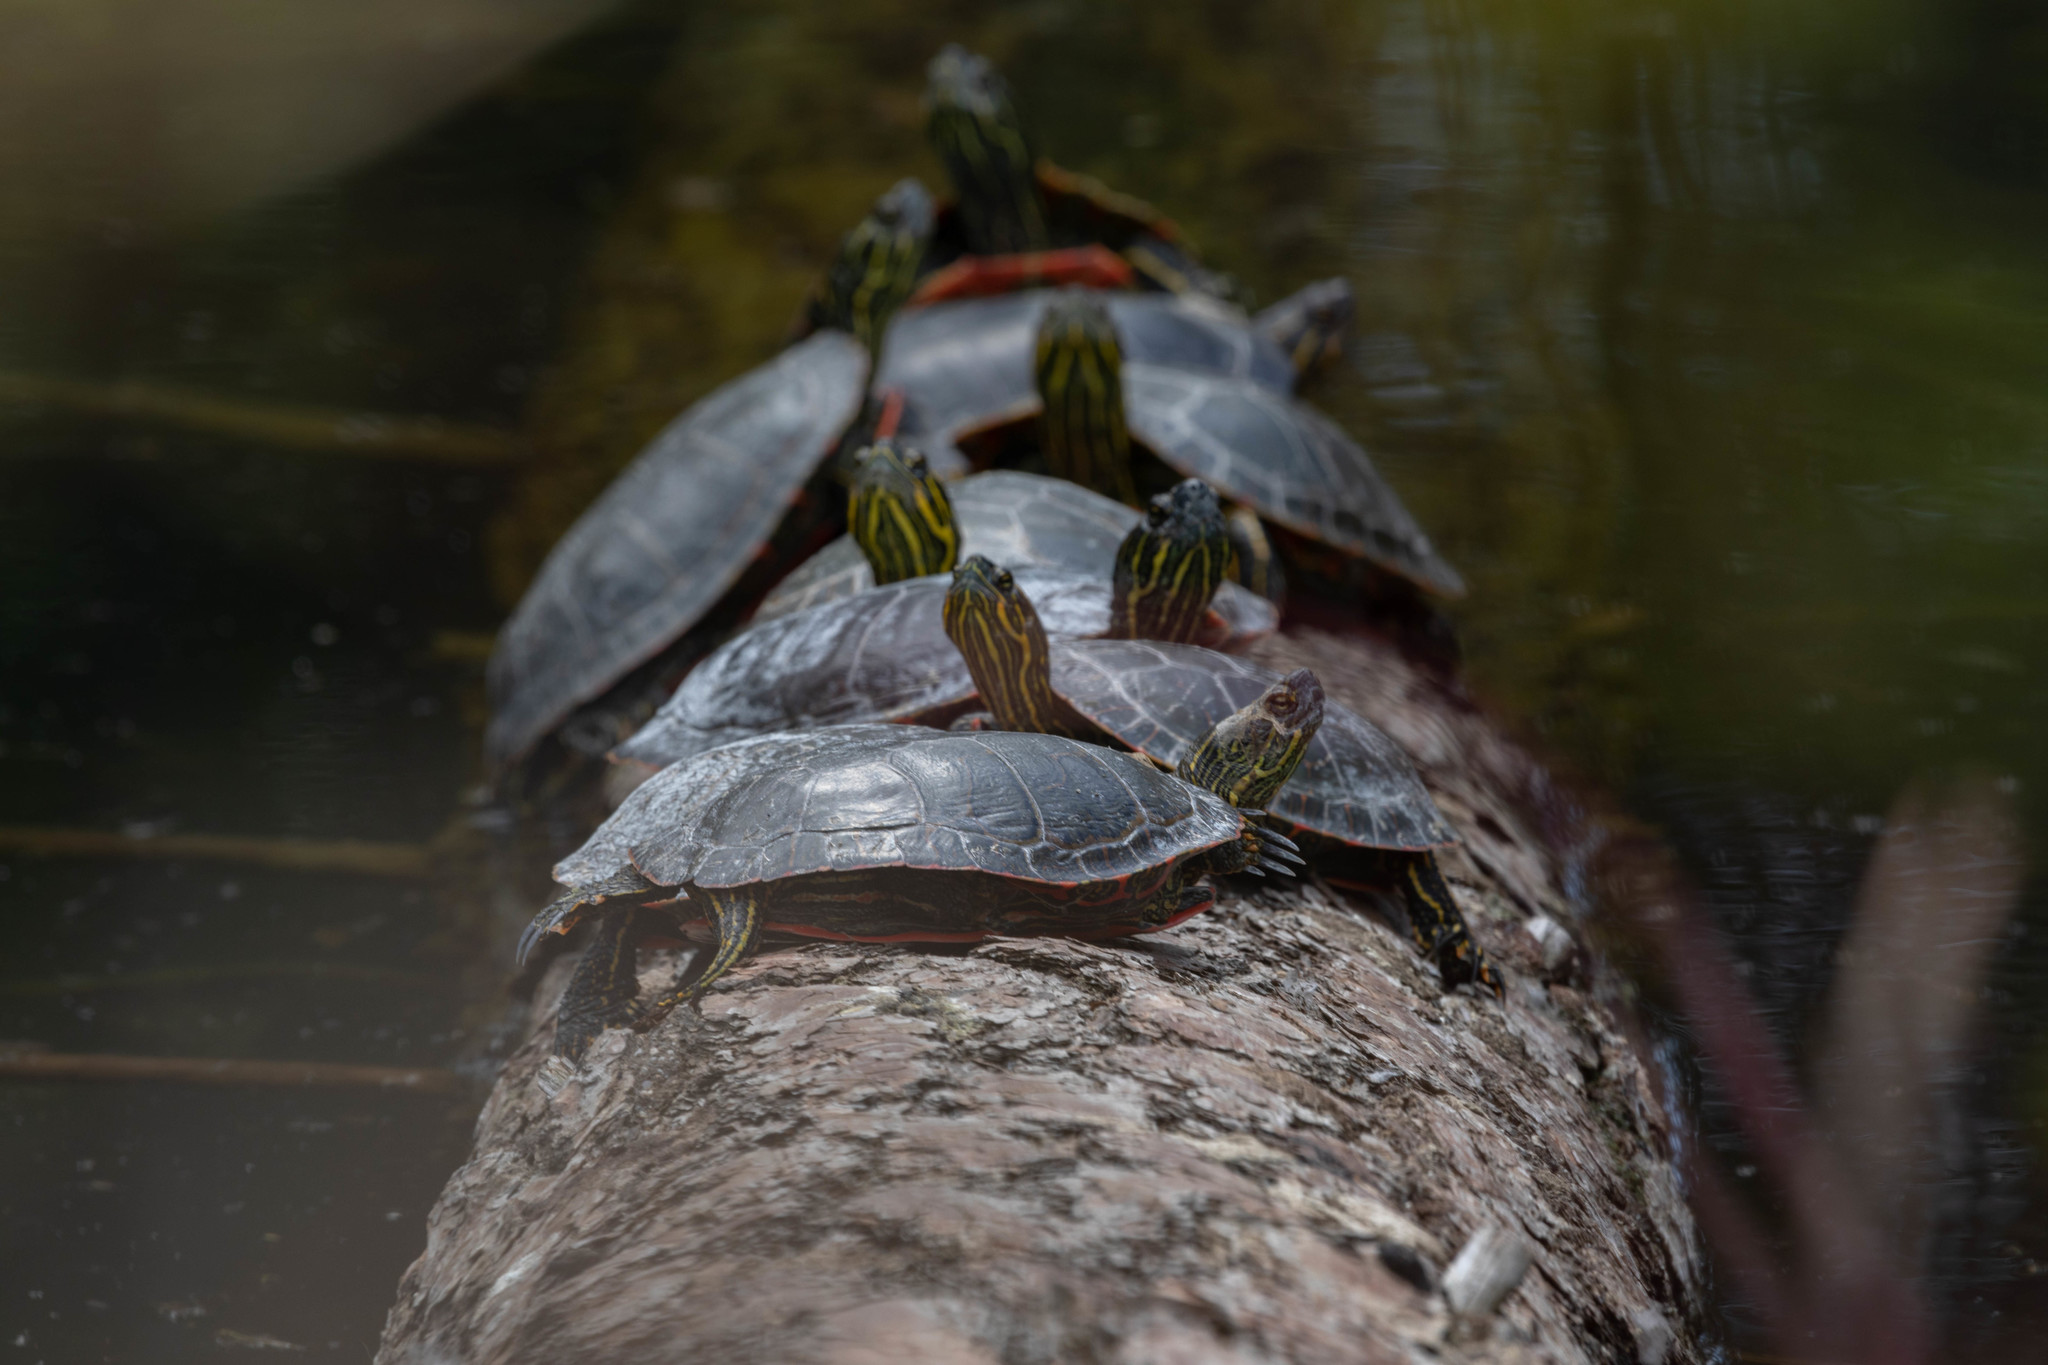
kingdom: Animalia
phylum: Chordata
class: Testudines
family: Emydidae
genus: Chrysemys
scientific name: Chrysemys picta
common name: Painted turtle
